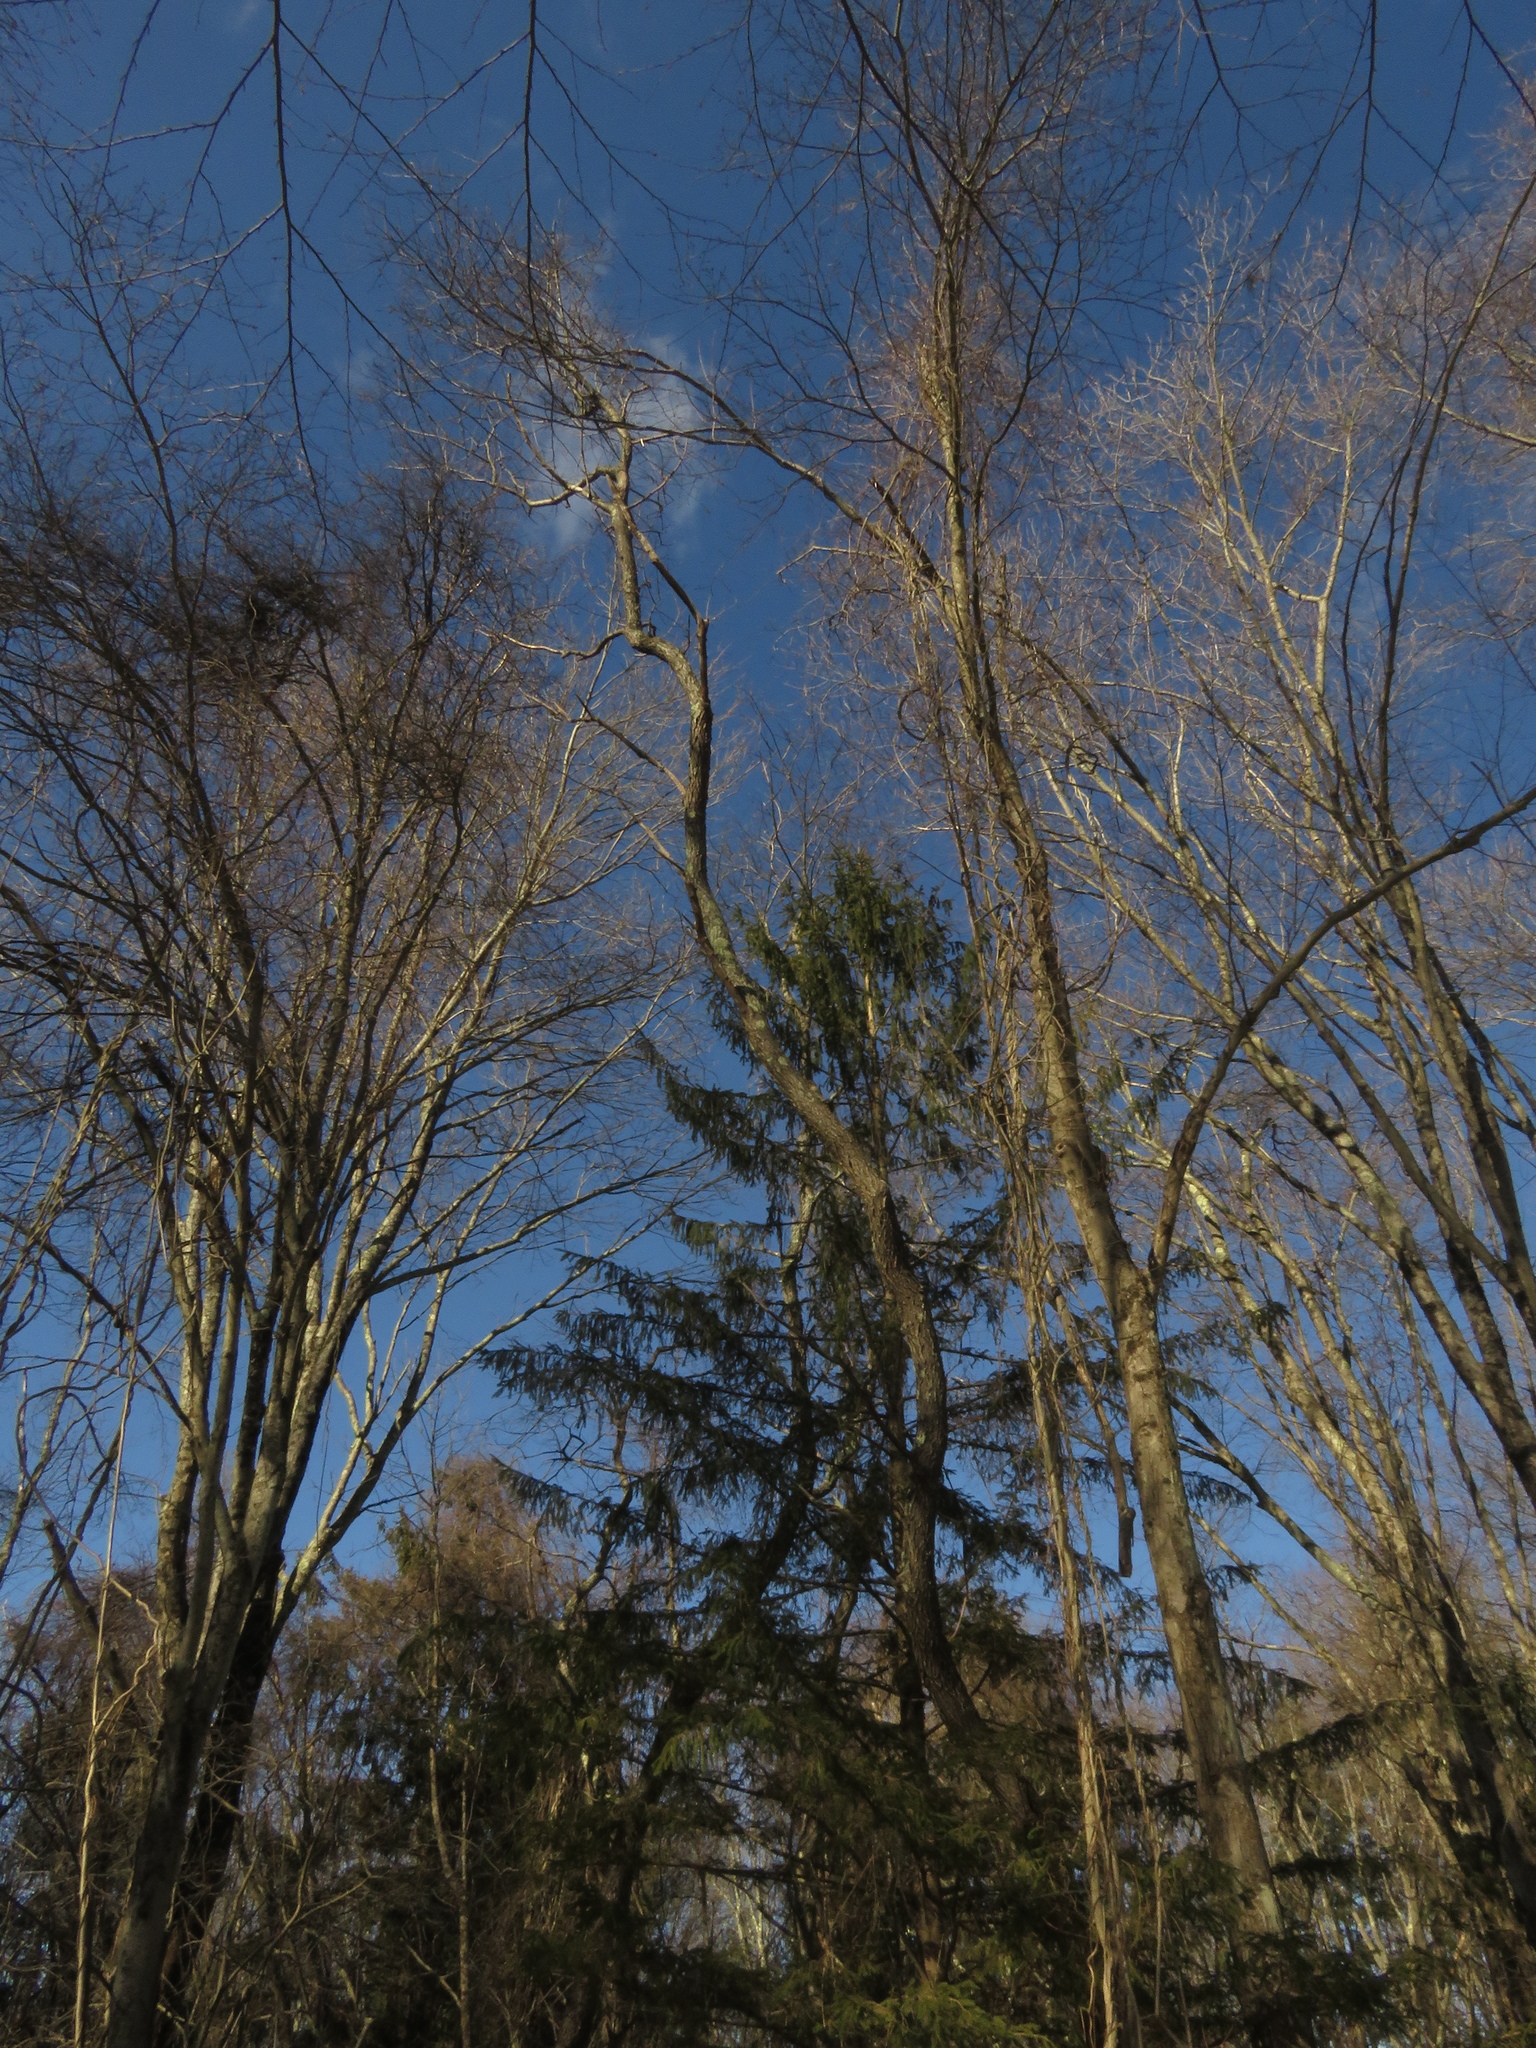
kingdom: Plantae
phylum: Tracheophyta
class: Magnoliopsida
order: Rosales
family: Rosaceae
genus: Prunus
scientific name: Prunus serotina
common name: Black cherry
